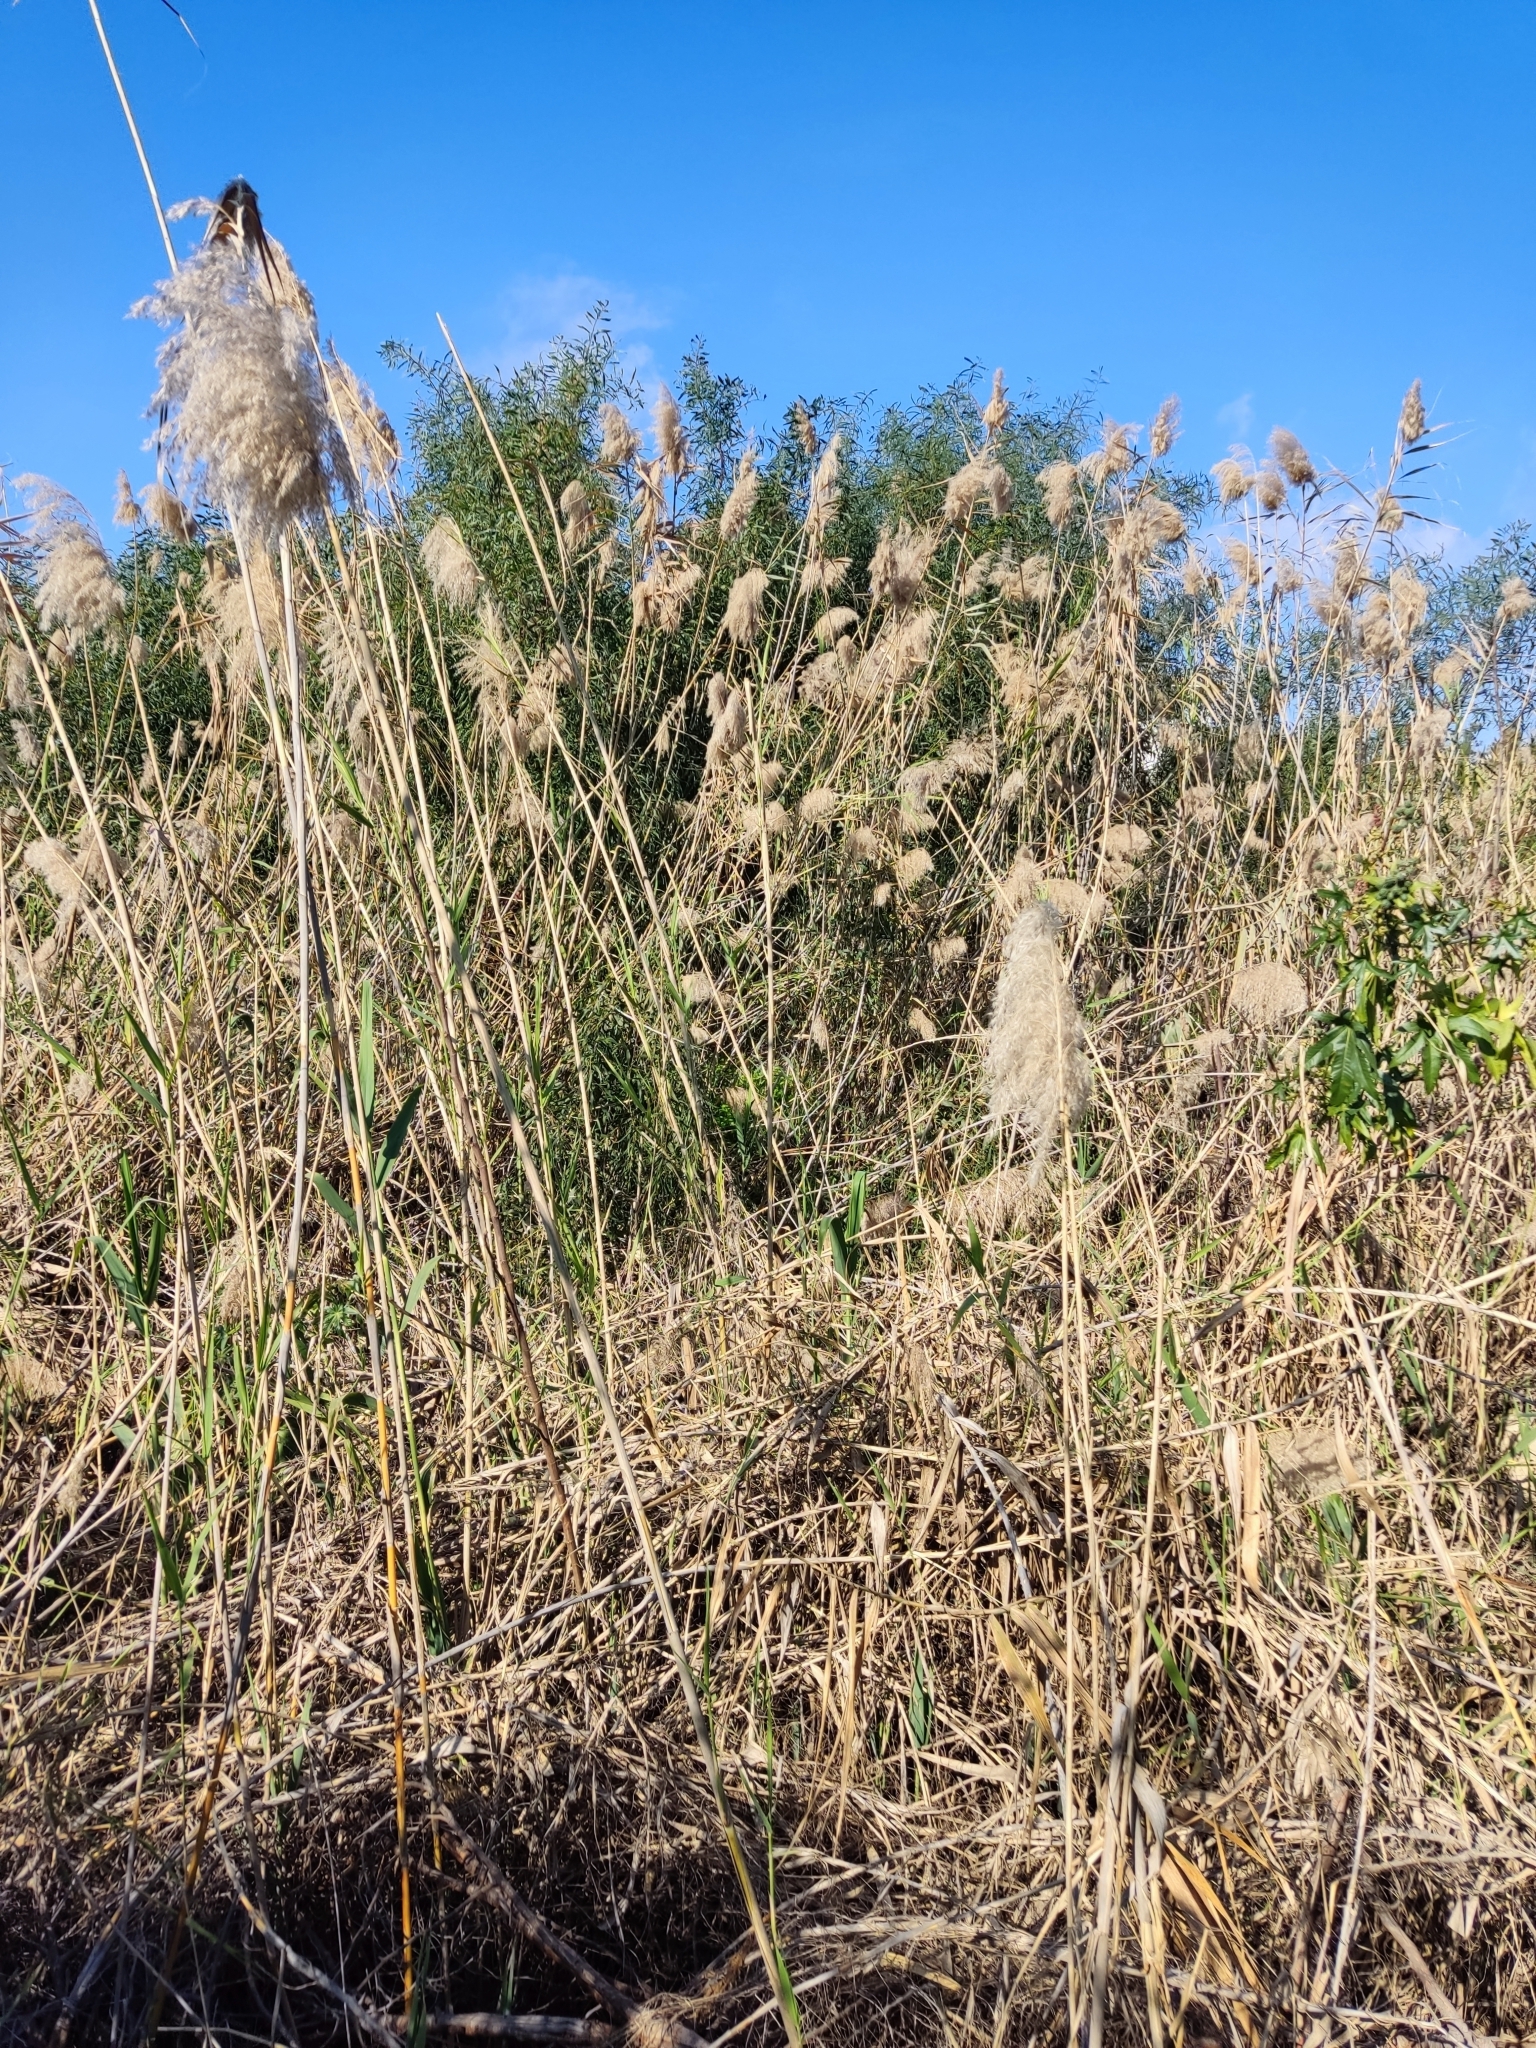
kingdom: Plantae
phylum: Tracheophyta
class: Liliopsida
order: Poales
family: Poaceae
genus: Phragmites
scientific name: Phragmites australis
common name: Common reed
